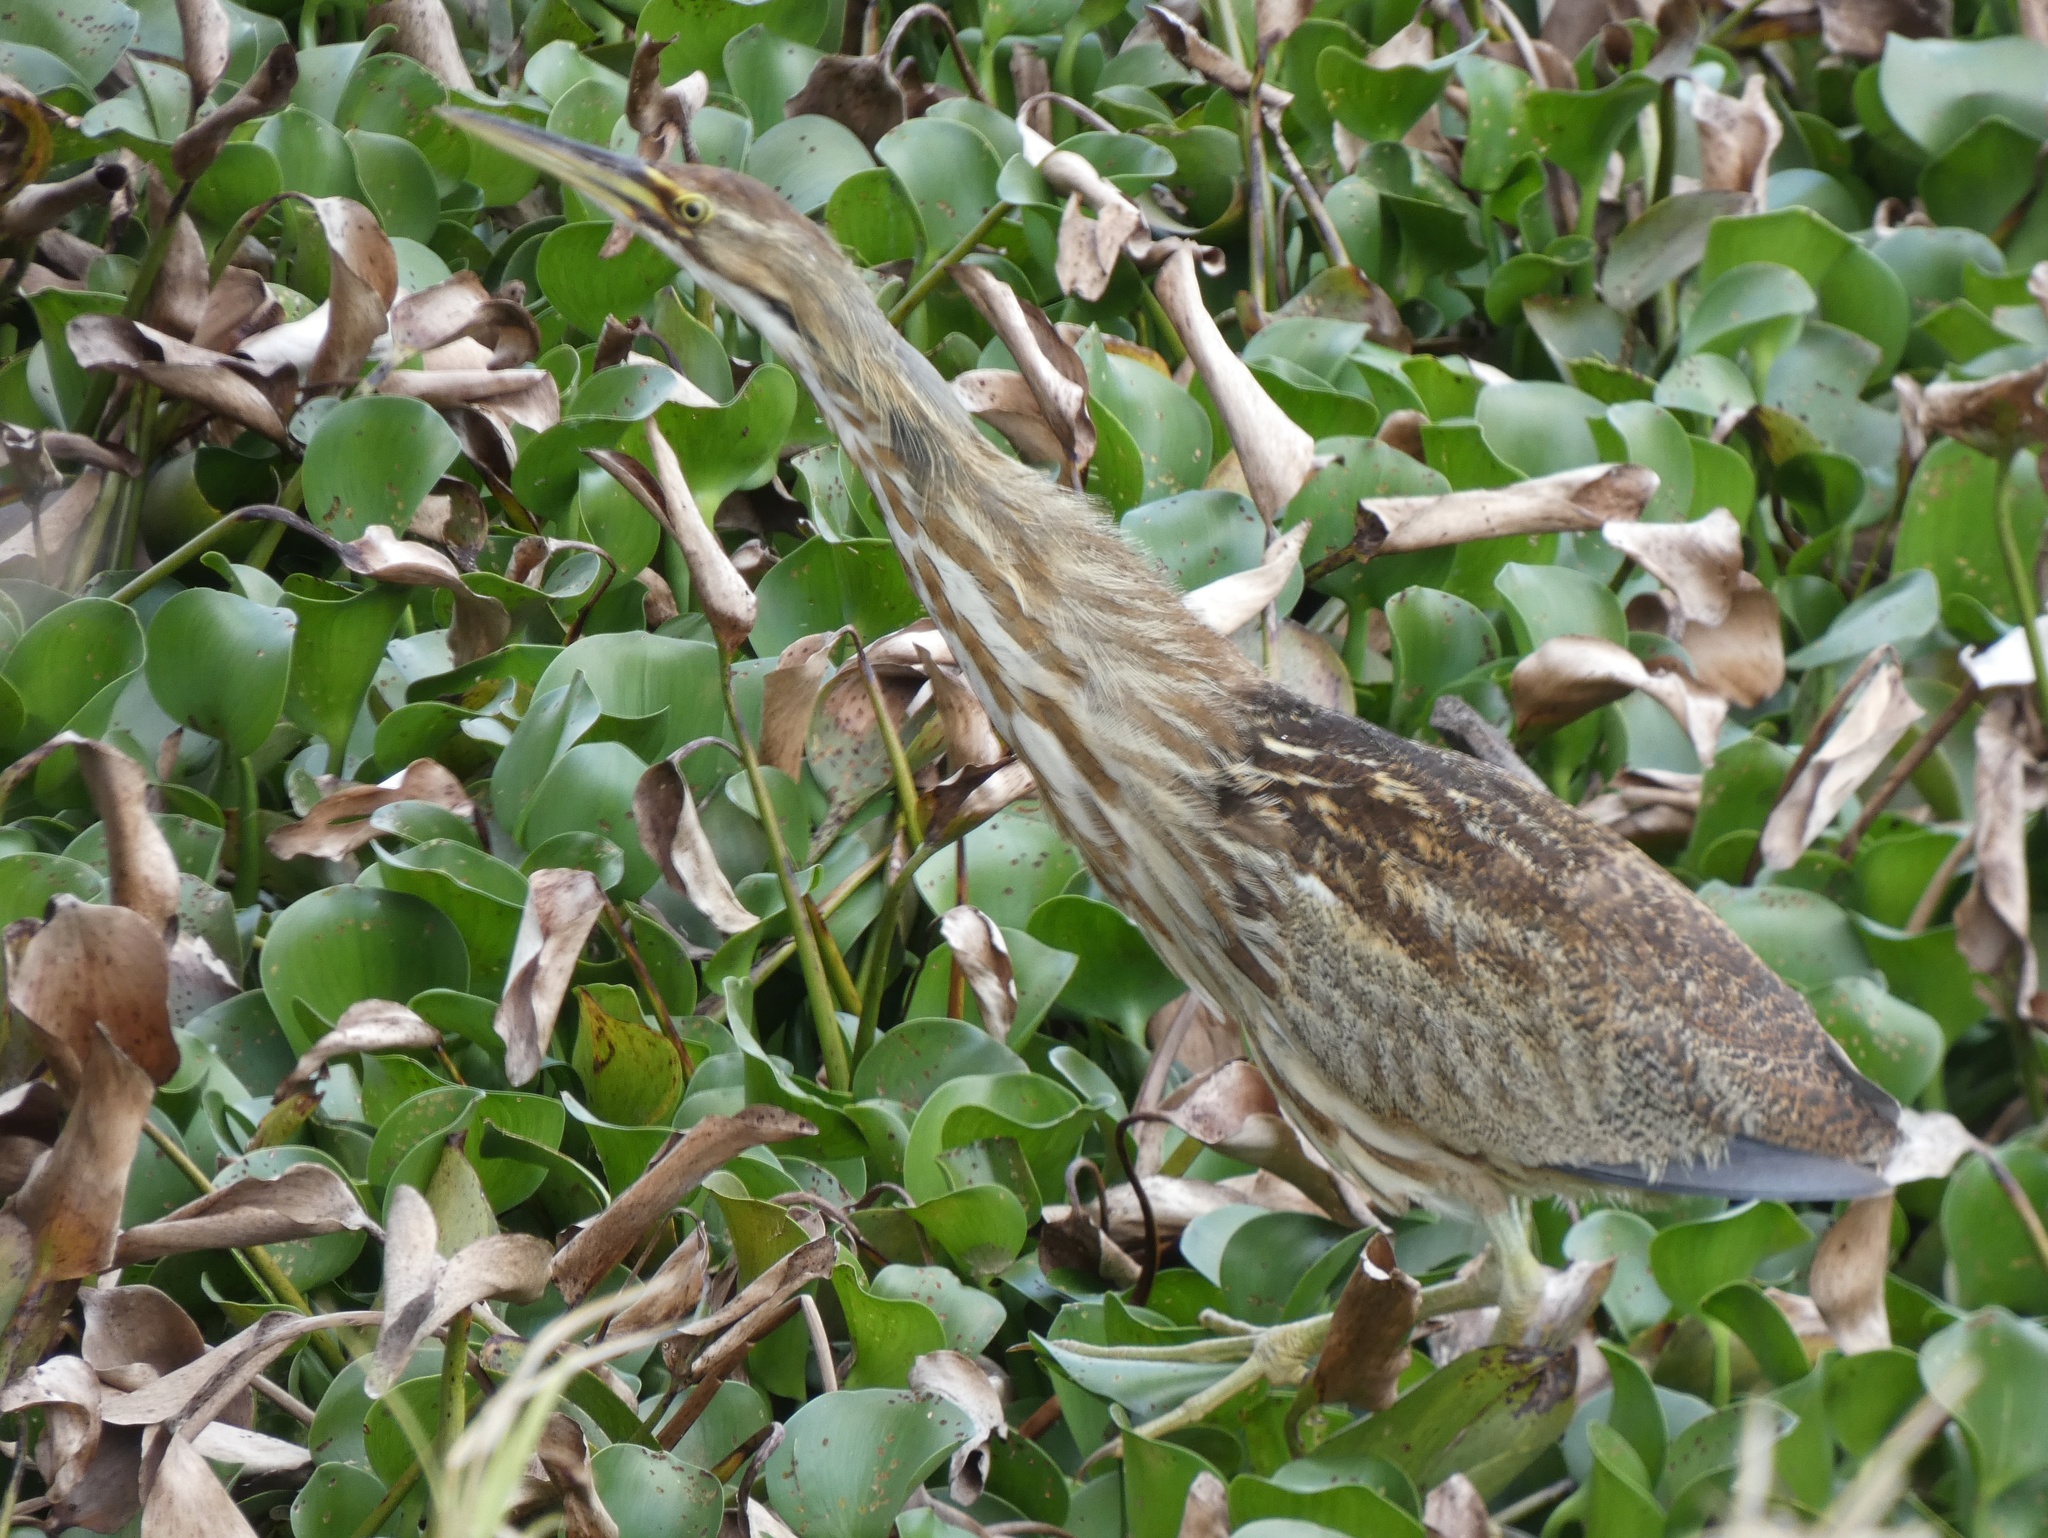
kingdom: Animalia
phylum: Chordata
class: Aves
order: Pelecaniformes
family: Ardeidae
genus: Botaurus
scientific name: Botaurus lentiginosus
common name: American bittern
